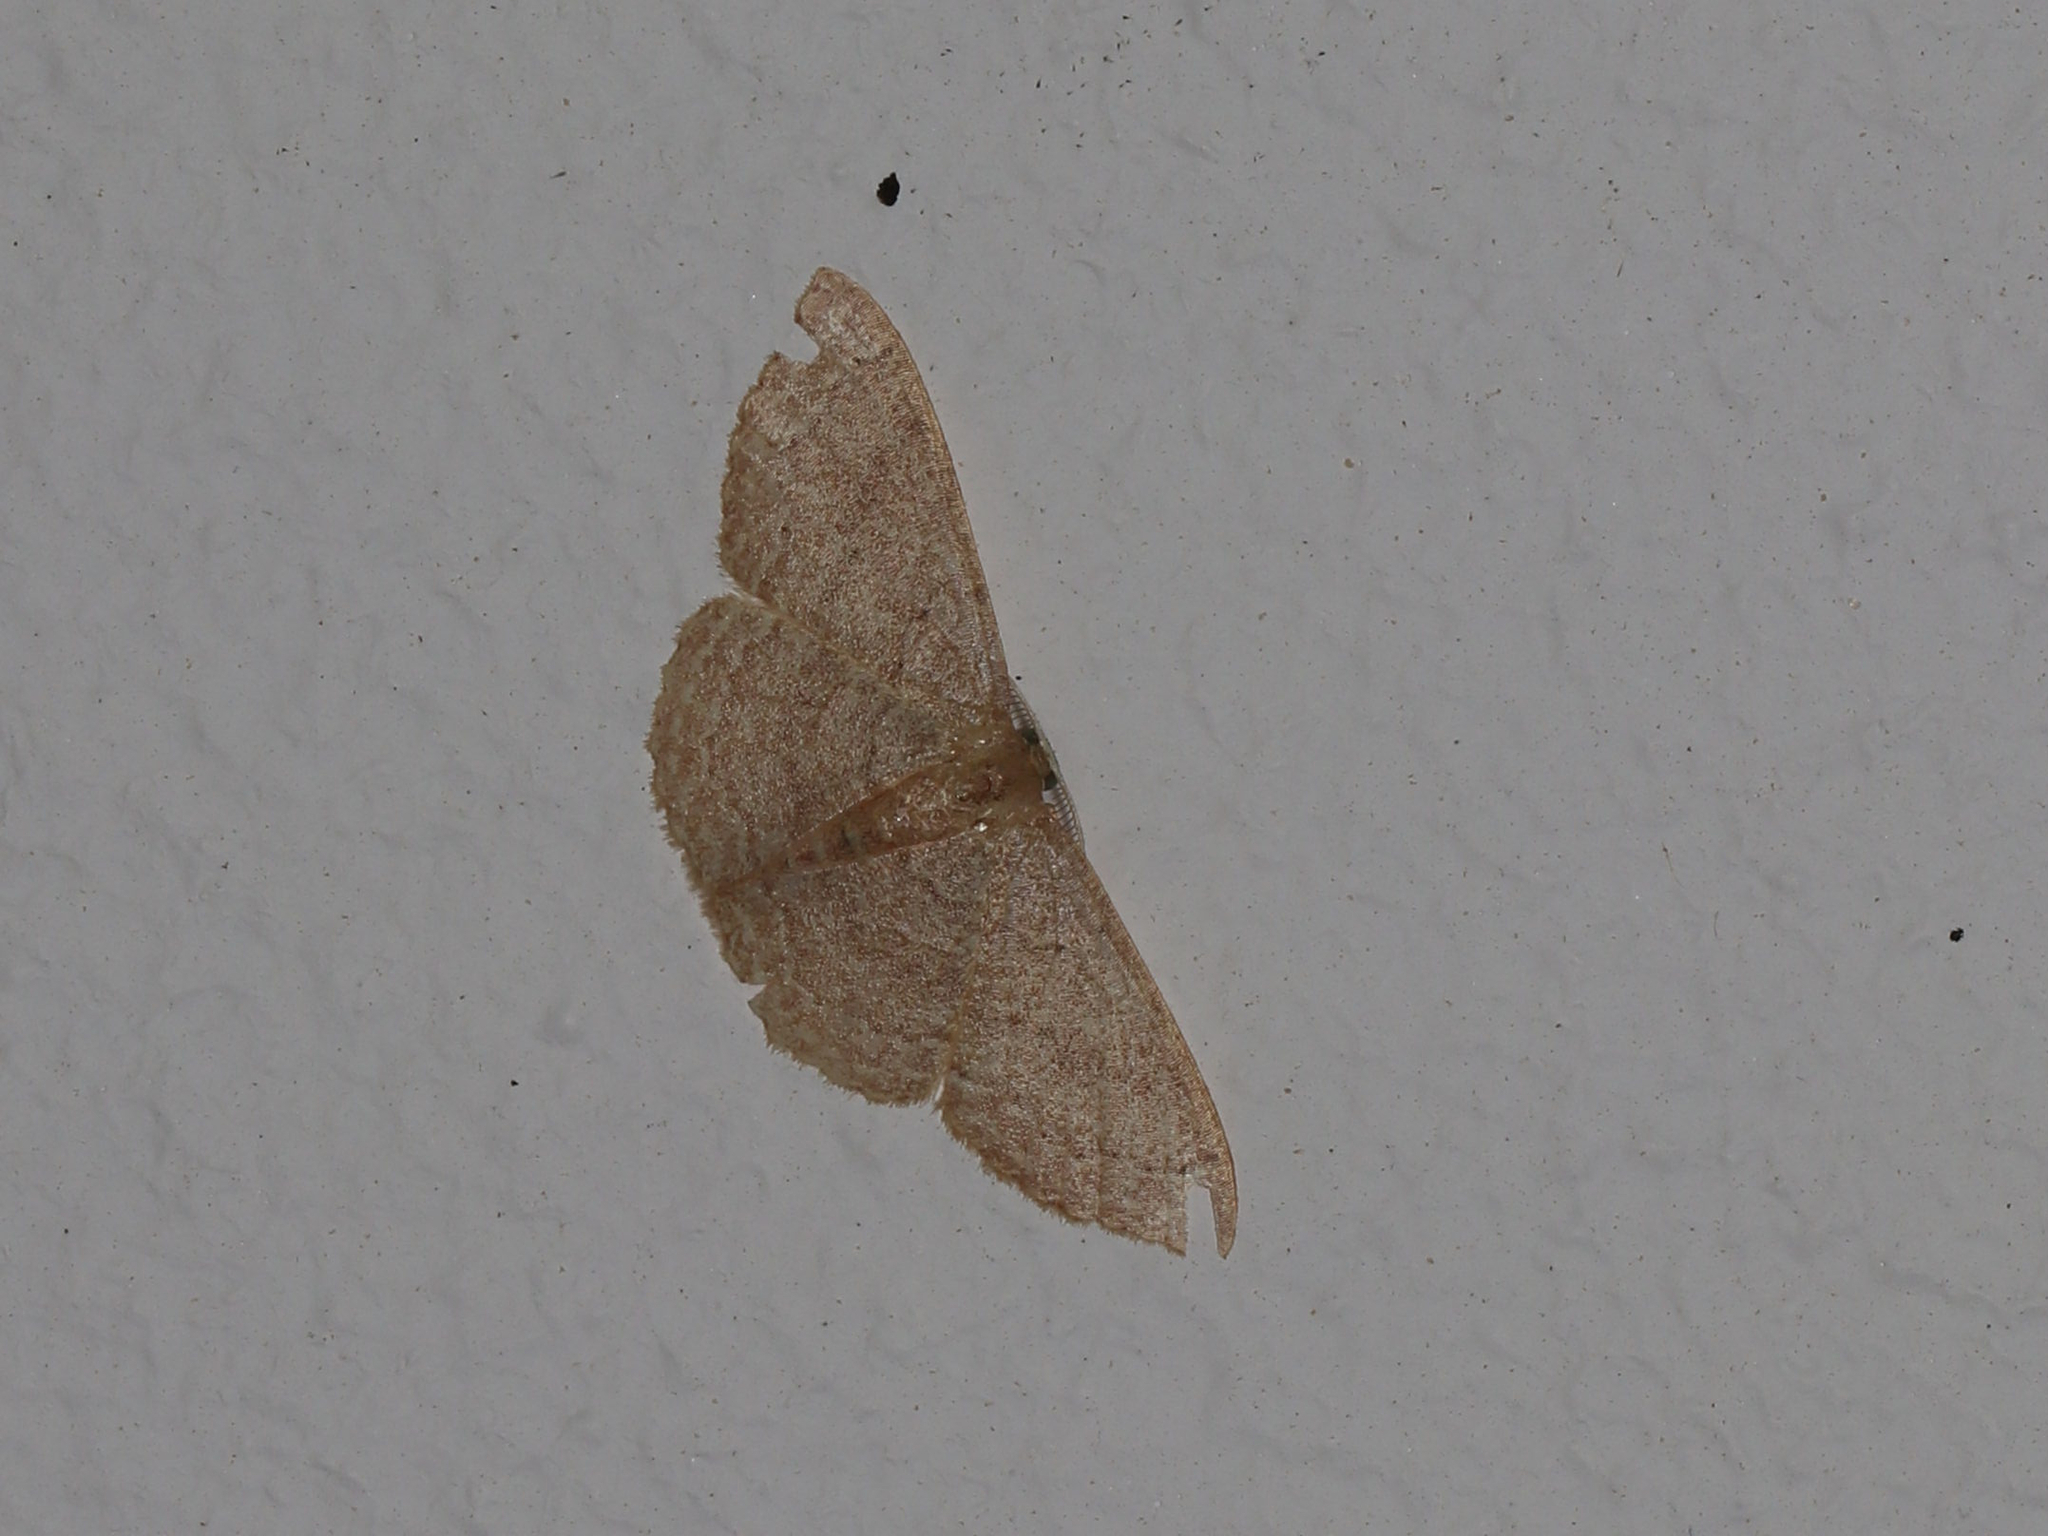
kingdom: Animalia
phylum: Arthropoda
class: Insecta
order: Lepidoptera
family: Geometridae
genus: Pleuroprucha
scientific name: Pleuroprucha insulsaria
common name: Common tan wave
